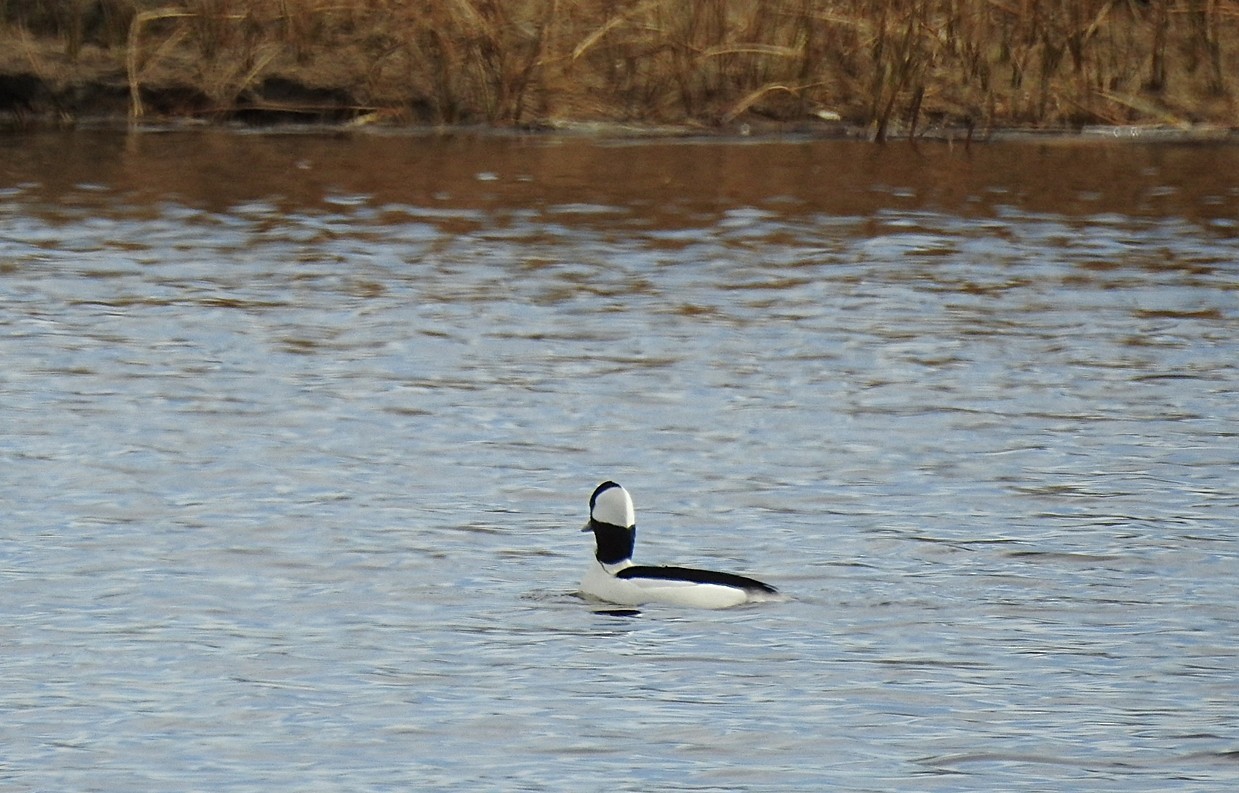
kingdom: Animalia
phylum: Chordata
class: Aves
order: Anseriformes
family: Anatidae
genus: Bucephala
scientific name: Bucephala albeola
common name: Bufflehead
